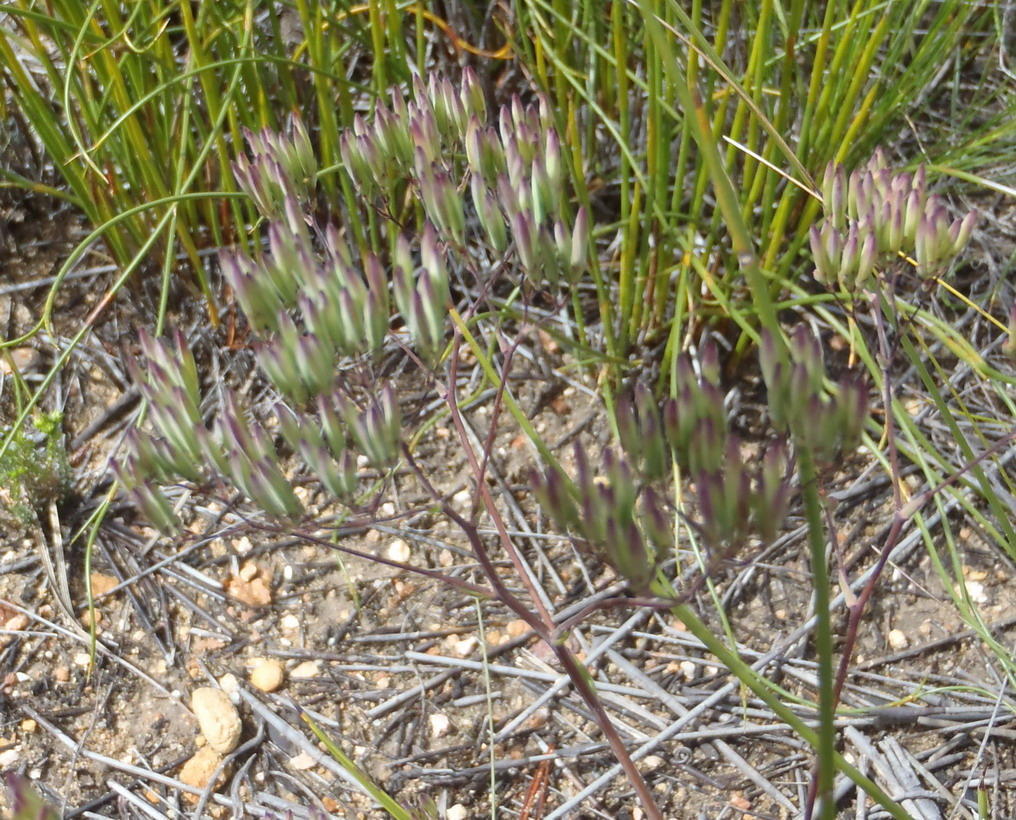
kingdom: Plantae
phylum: Tracheophyta
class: Magnoliopsida
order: Asterales
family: Asteraceae
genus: Corymbium
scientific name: Corymbium glabrum
